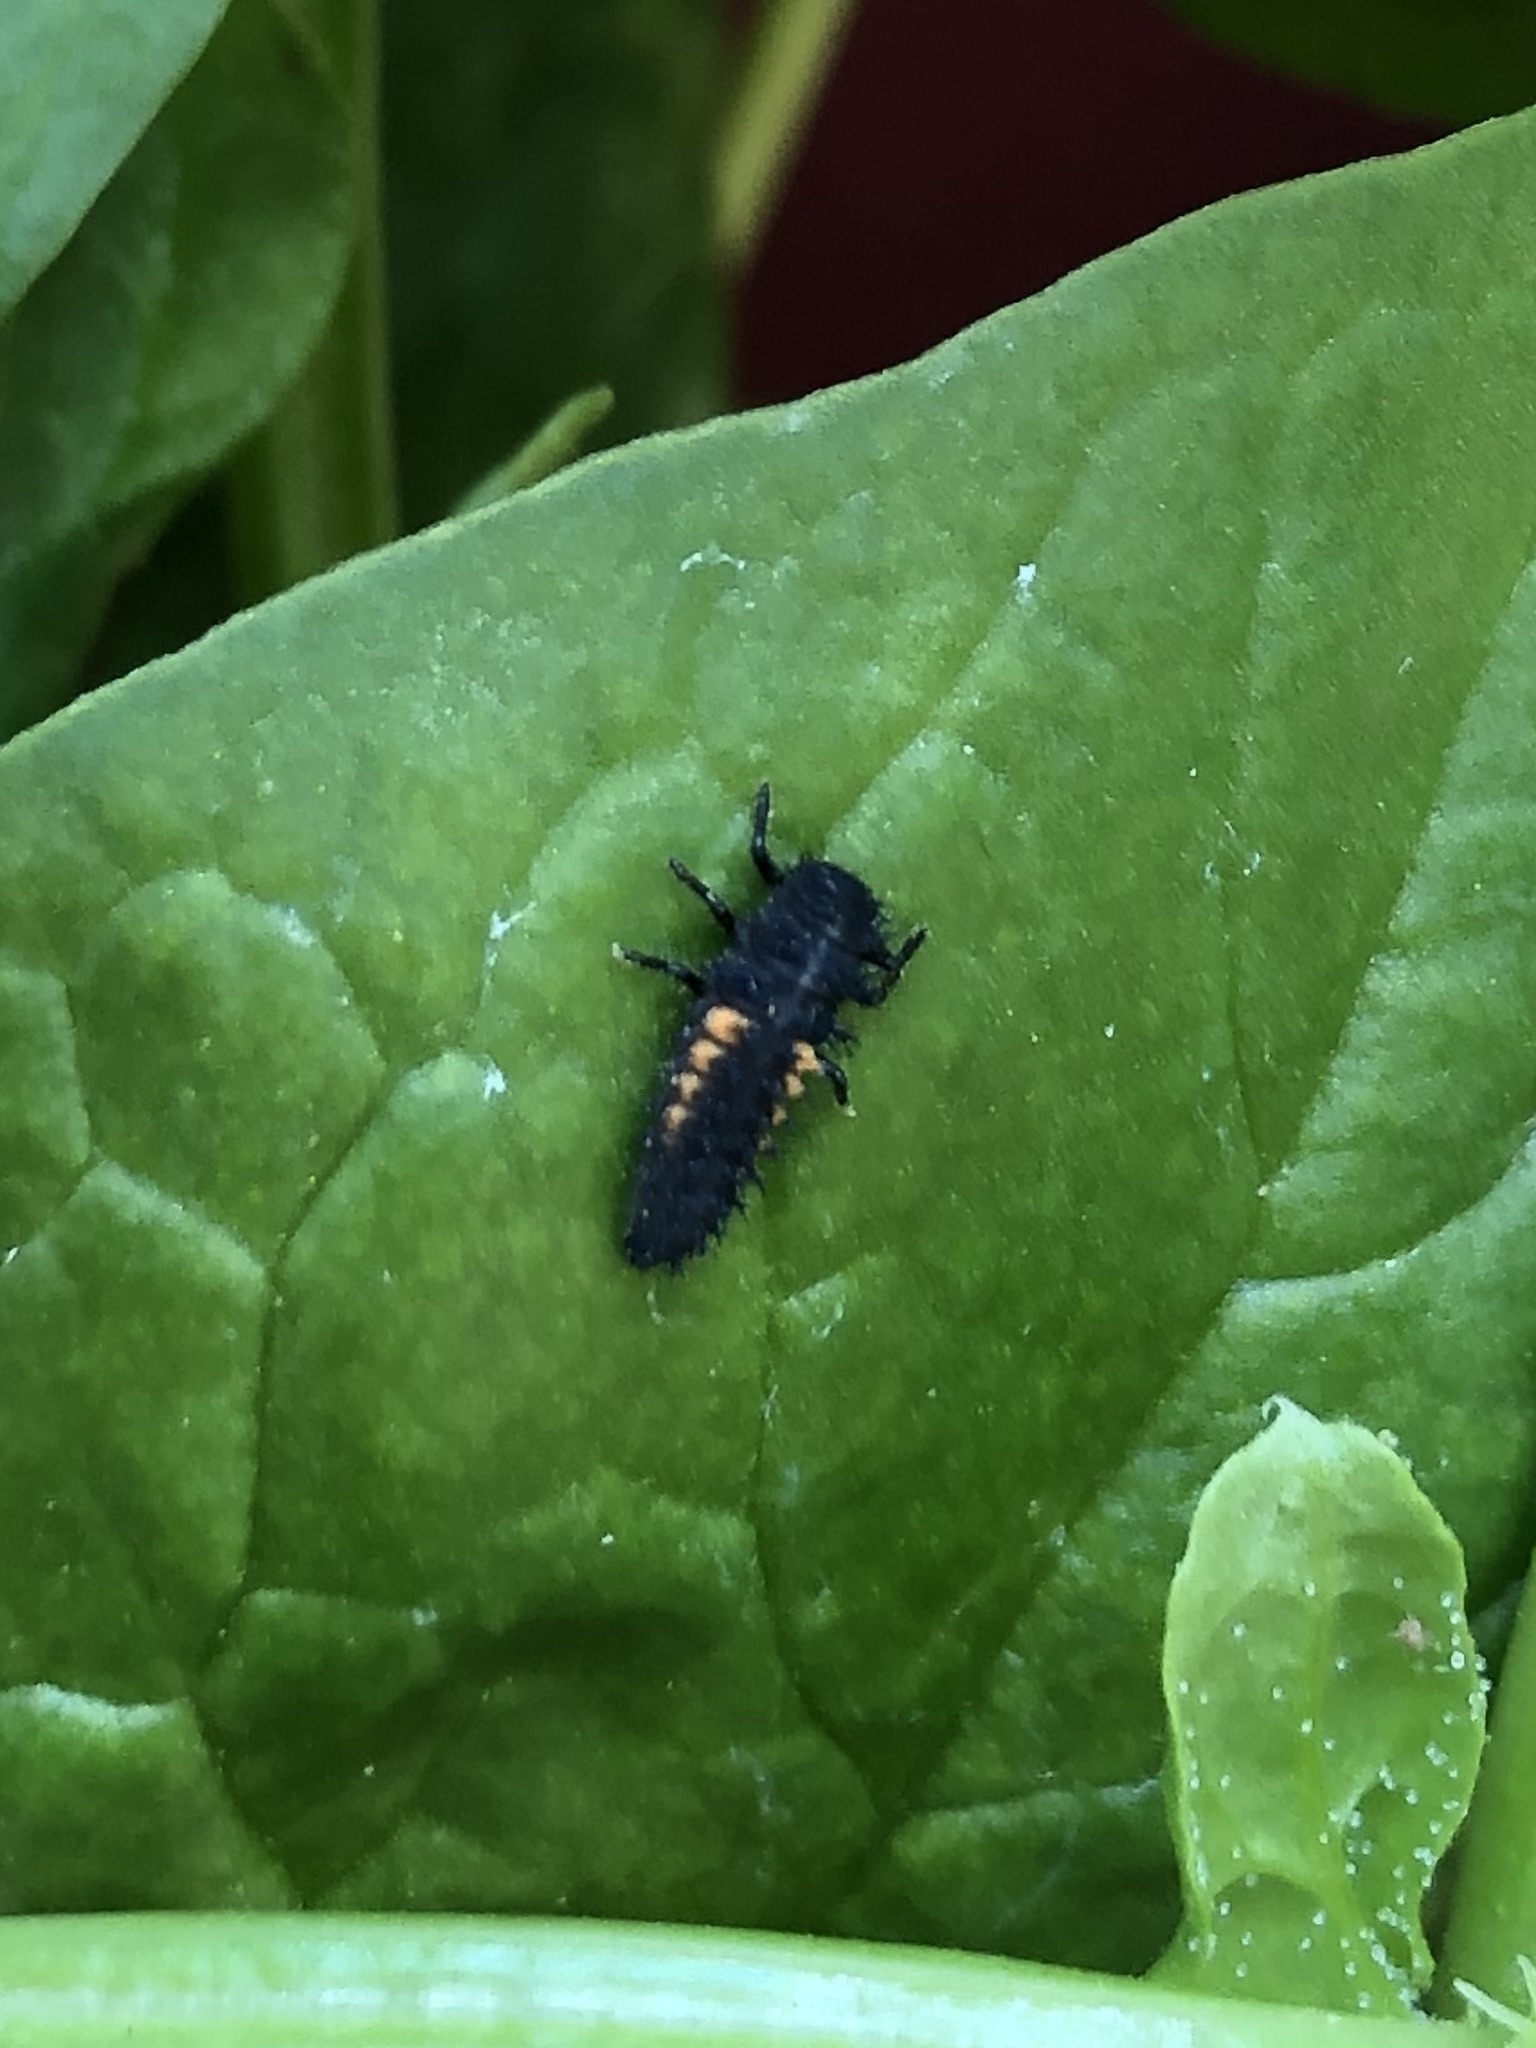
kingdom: Animalia
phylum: Arthropoda
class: Insecta
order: Coleoptera
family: Coccinellidae
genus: Harmonia
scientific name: Harmonia axyridis
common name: Harlequin ladybird
